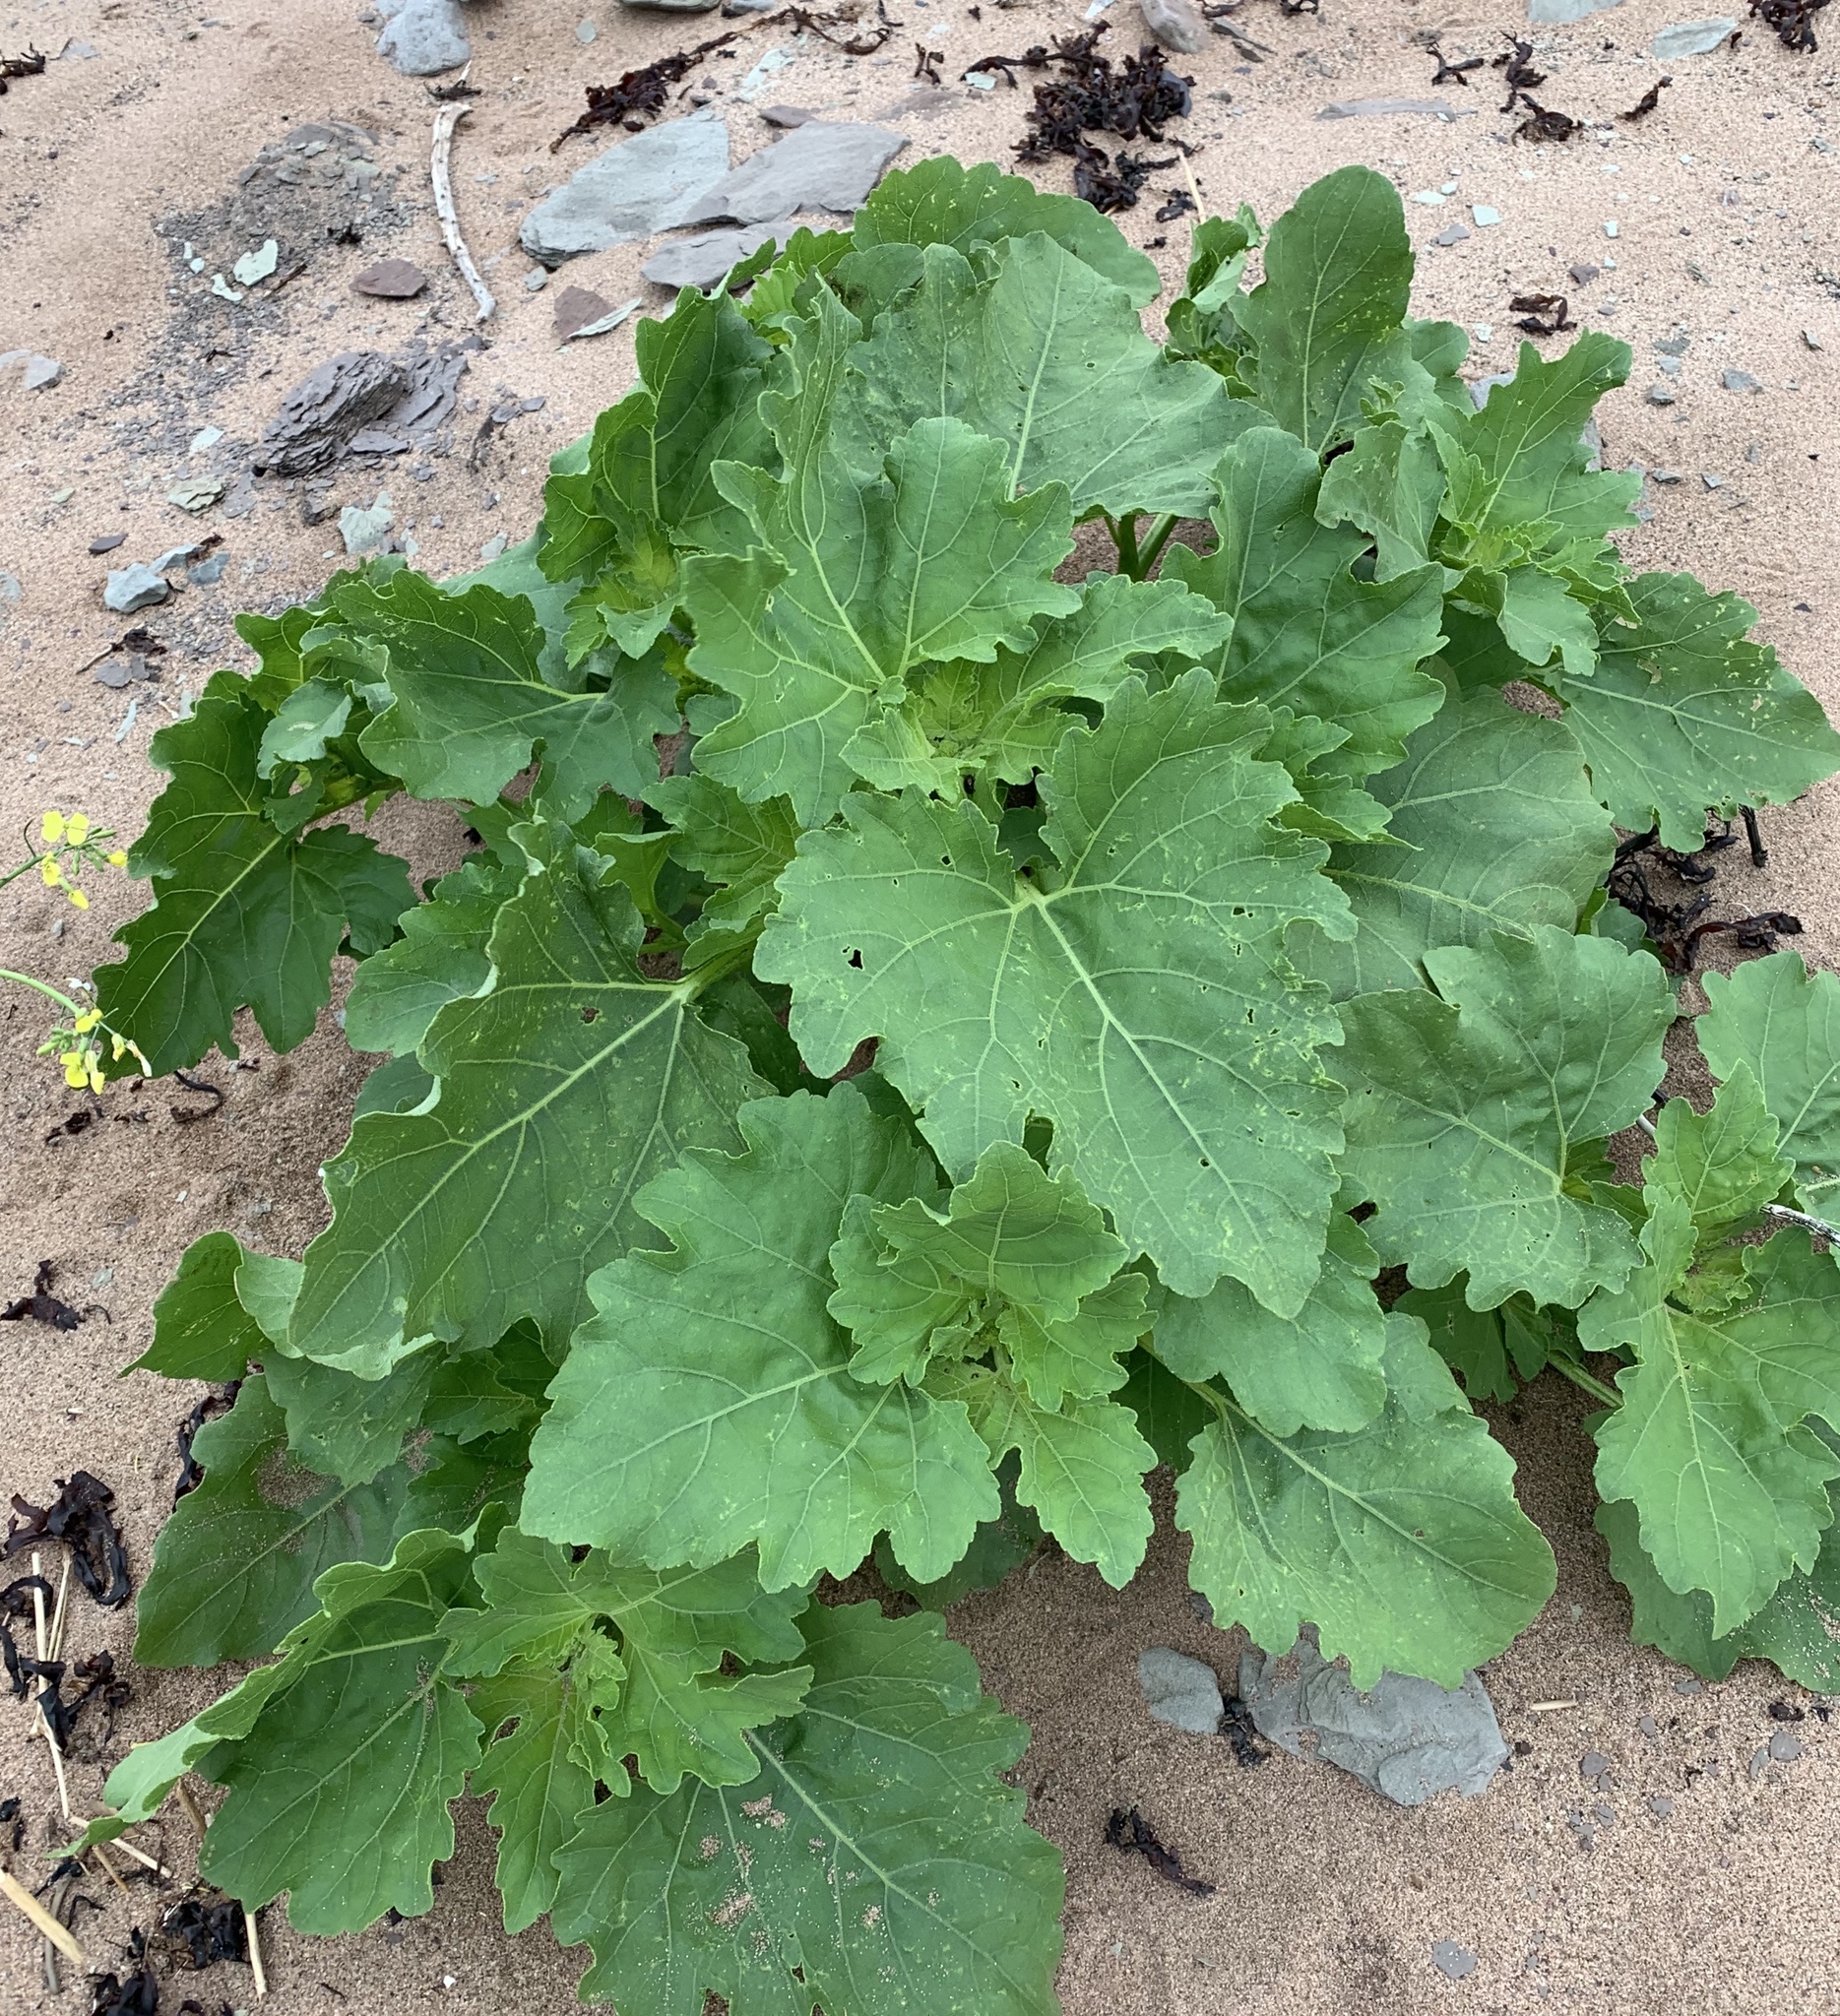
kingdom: Plantae
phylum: Tracheophyta
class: Magnoliopsida
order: Asterales
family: Asteraceae
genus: Xanthium
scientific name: Xanthium strumarium
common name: Rough cocklebur
